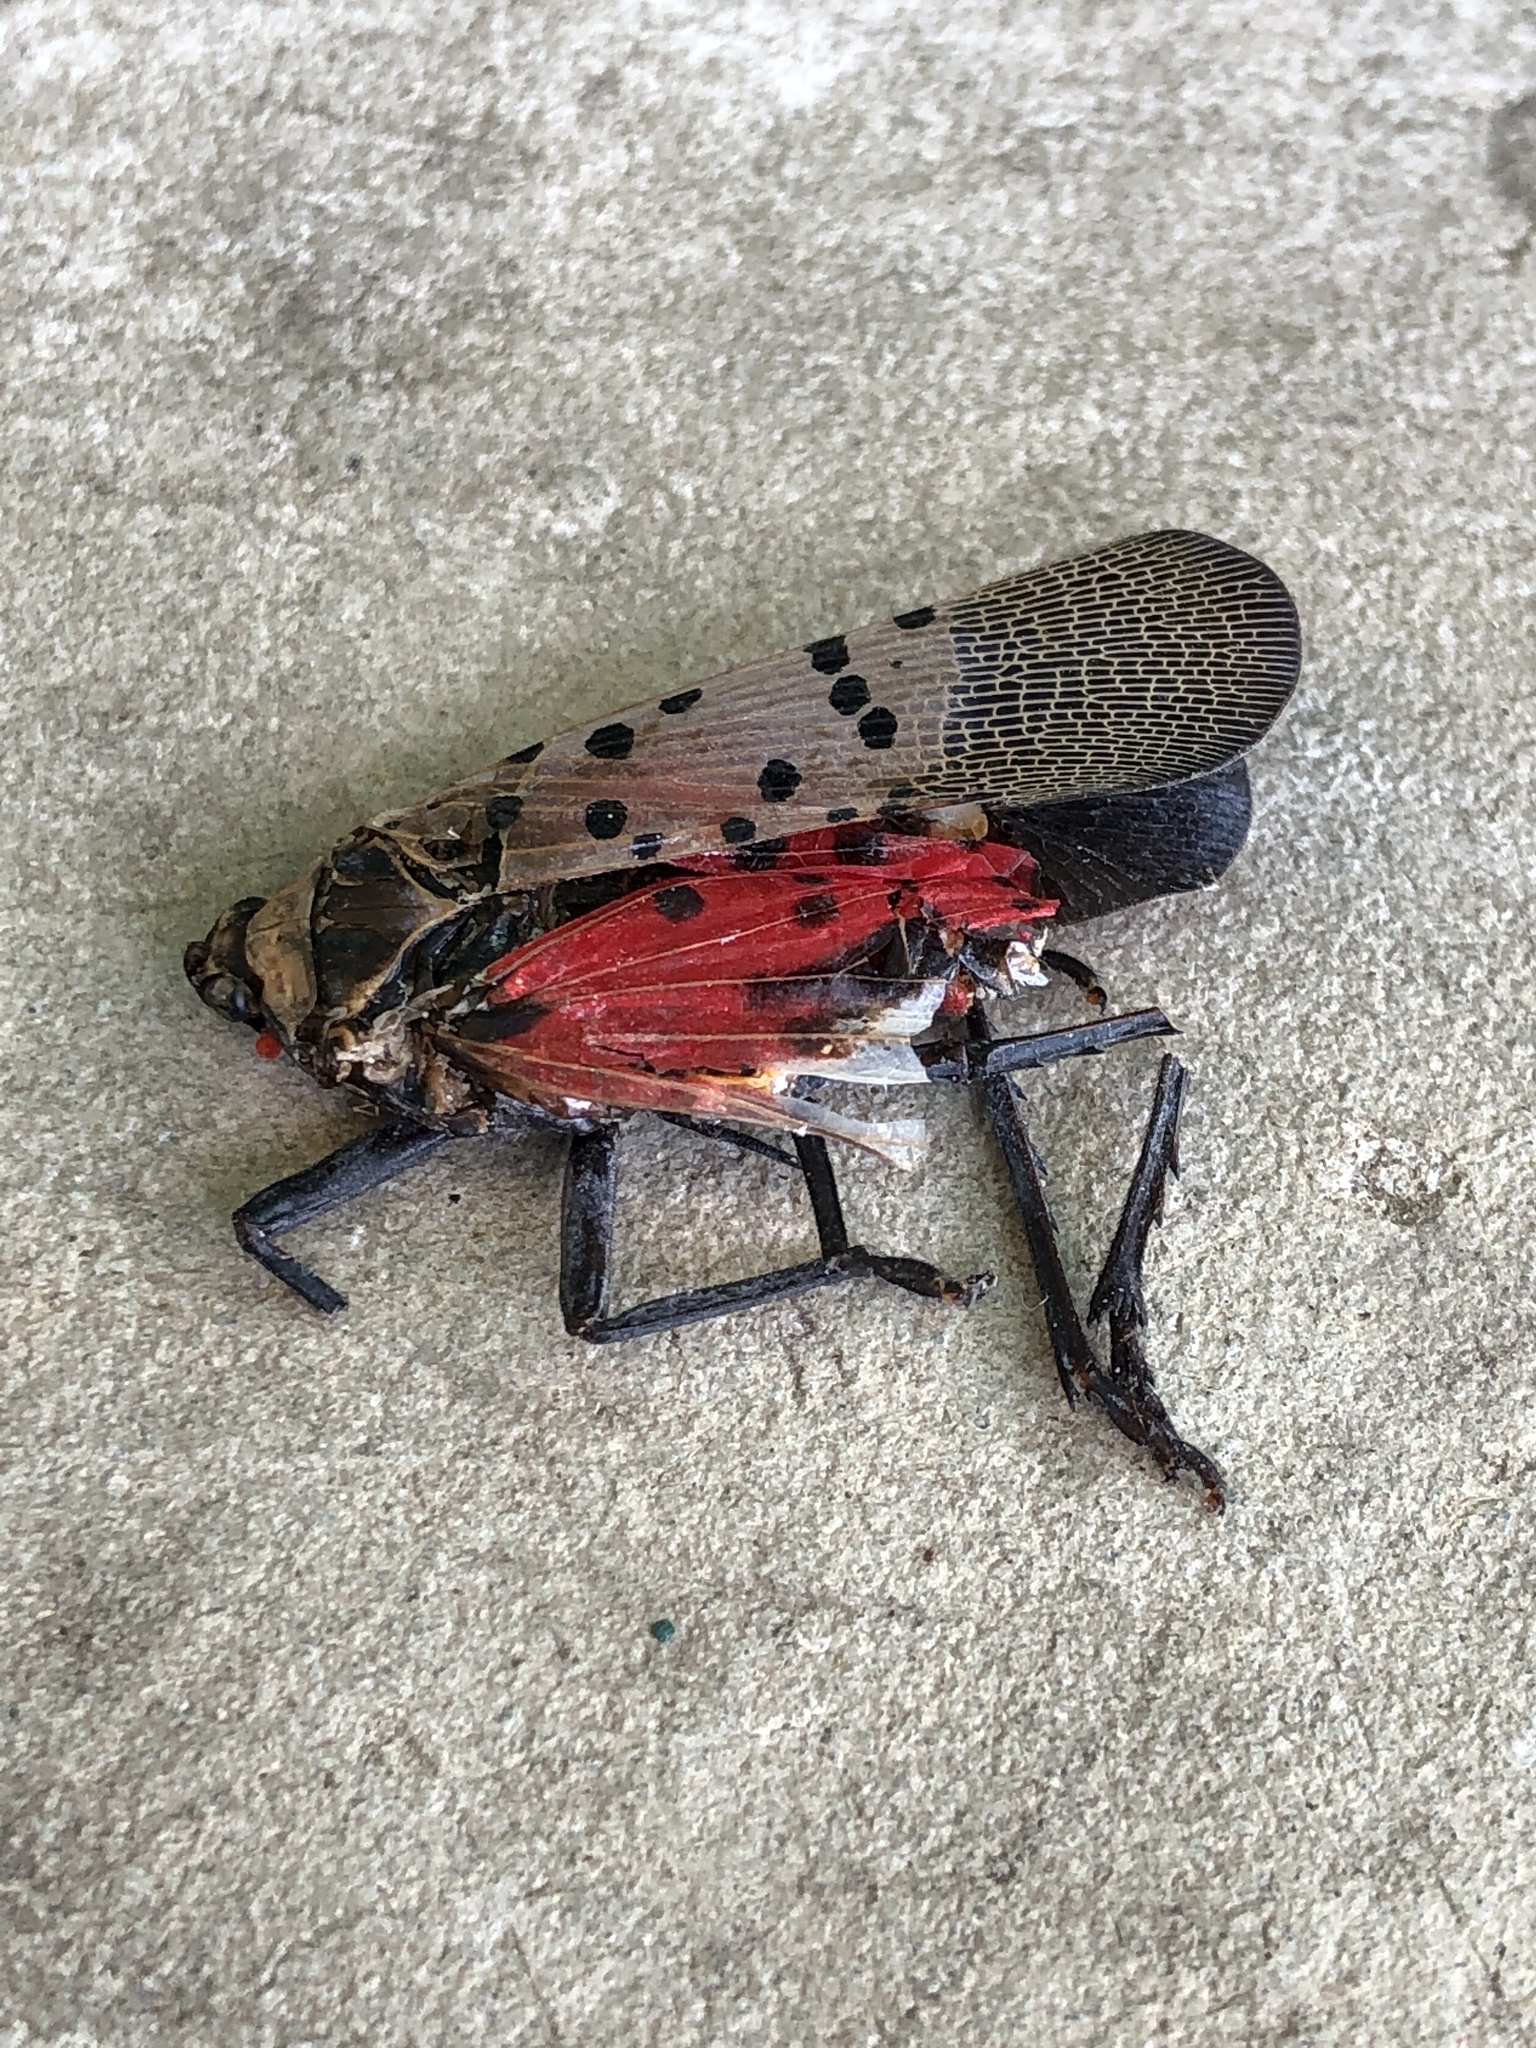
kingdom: Animalia
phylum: Arthropoda
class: Insecta
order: Hemiptera
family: Fulgoridae
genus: Lycorma
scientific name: Lycorma delicatula
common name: Spotted lanternfly
